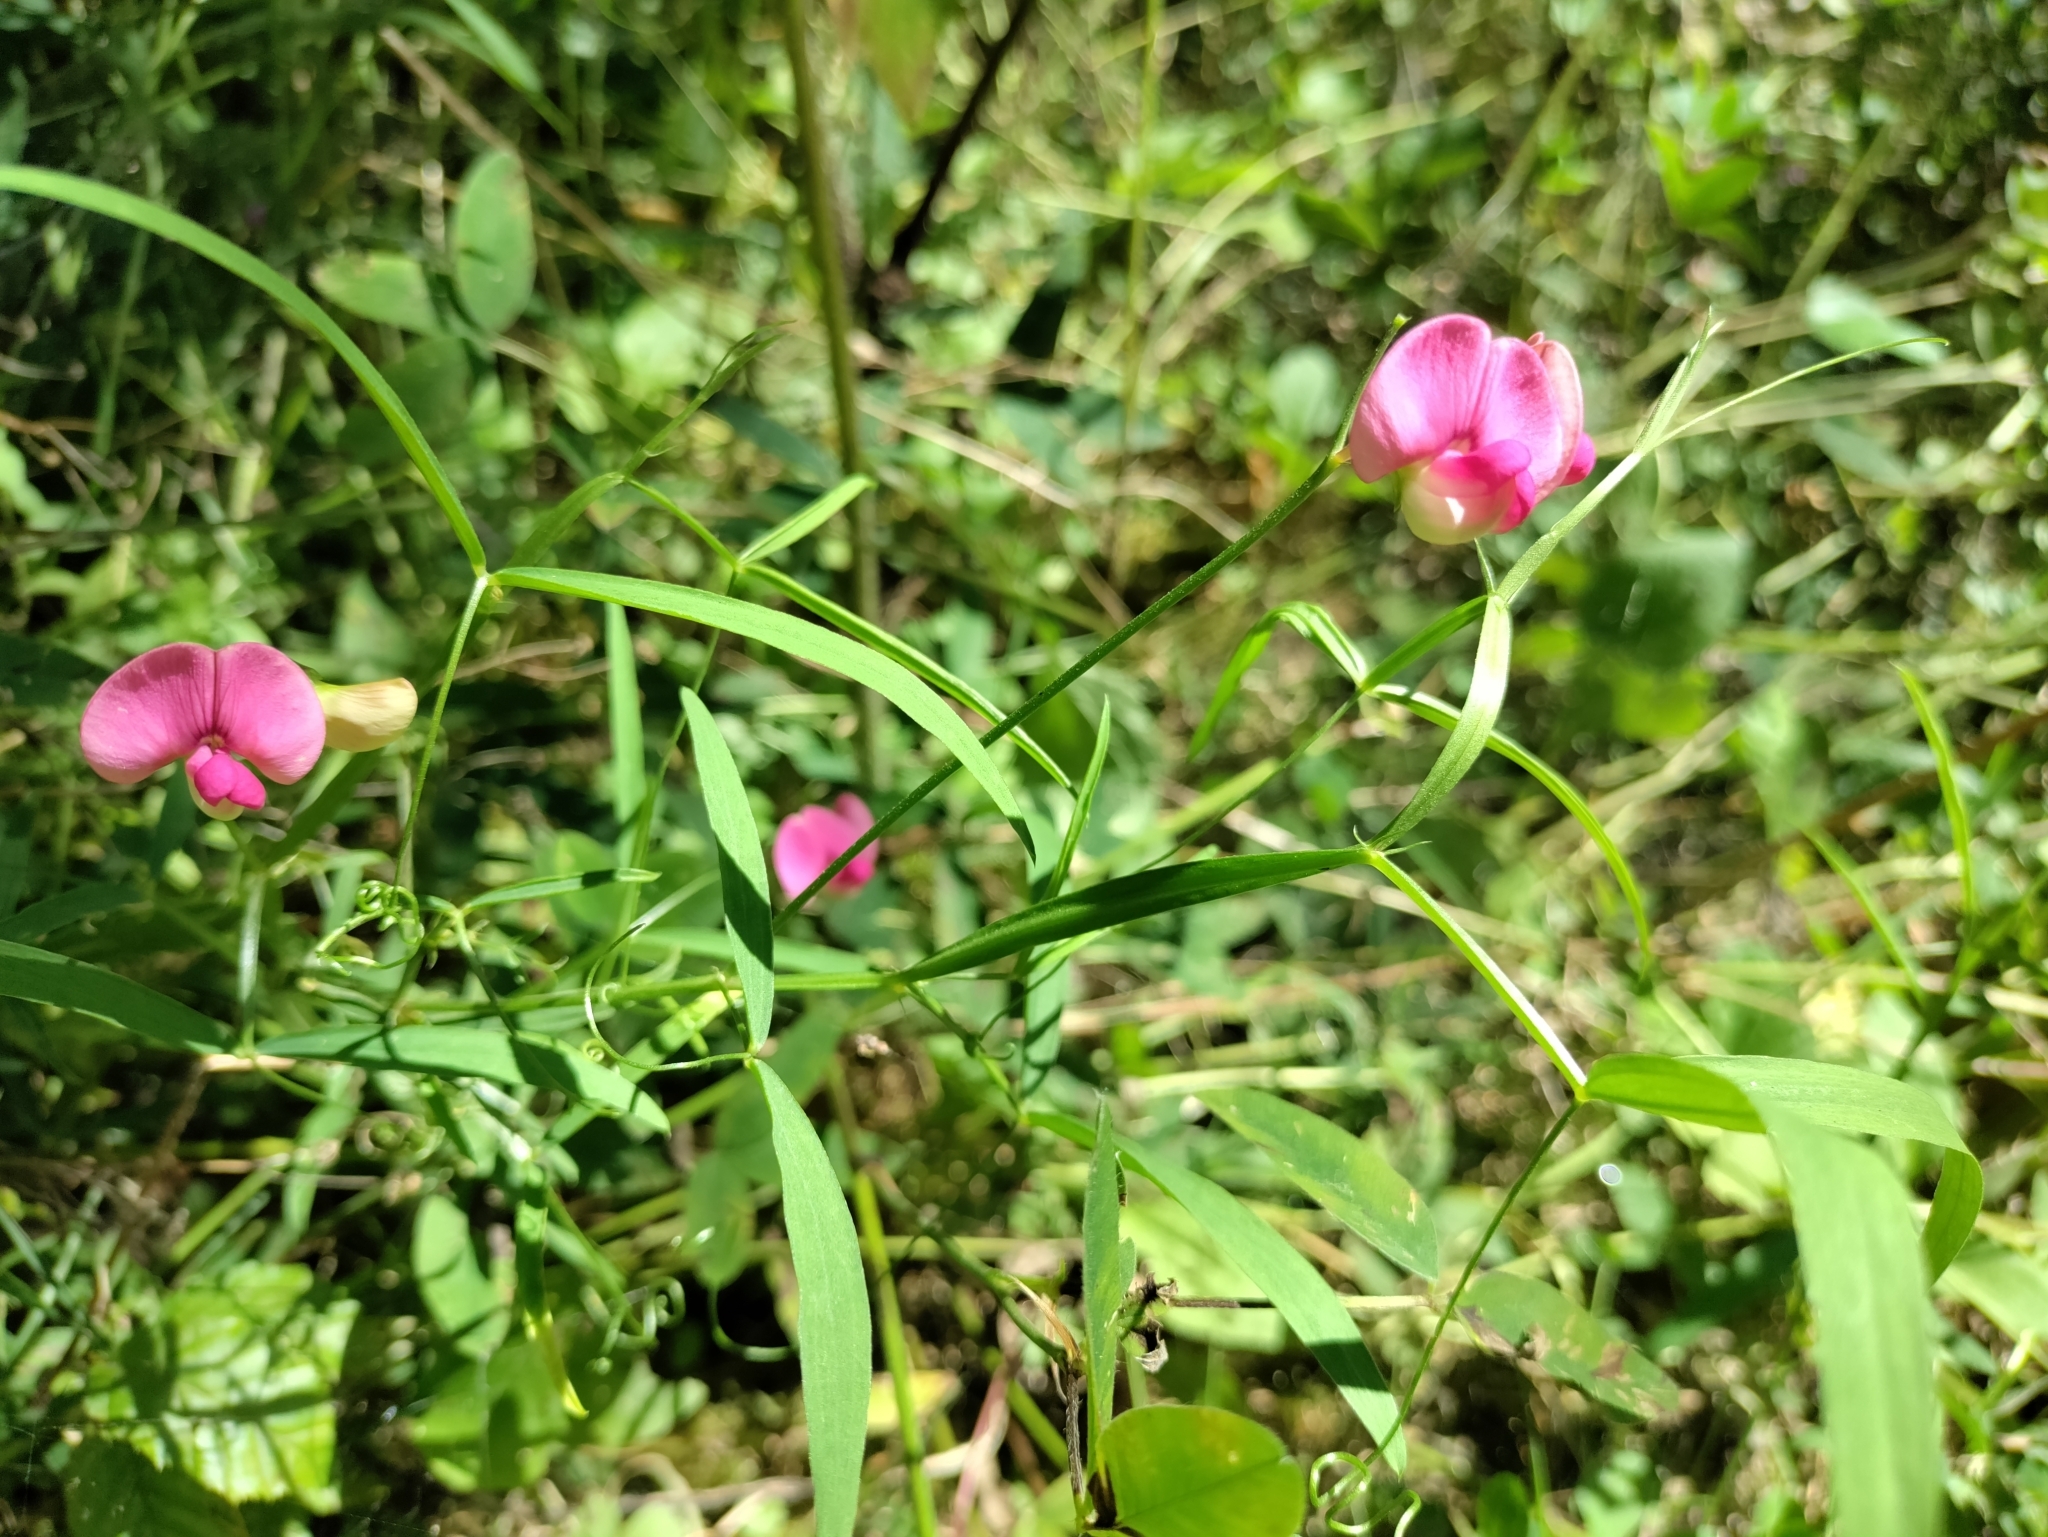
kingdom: Plantae
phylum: Tracheophyta
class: Magnoliopsida
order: Fabales
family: Fabaceae
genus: Lathyrus
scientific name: Lathyrus sylvestris
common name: Flat pea
